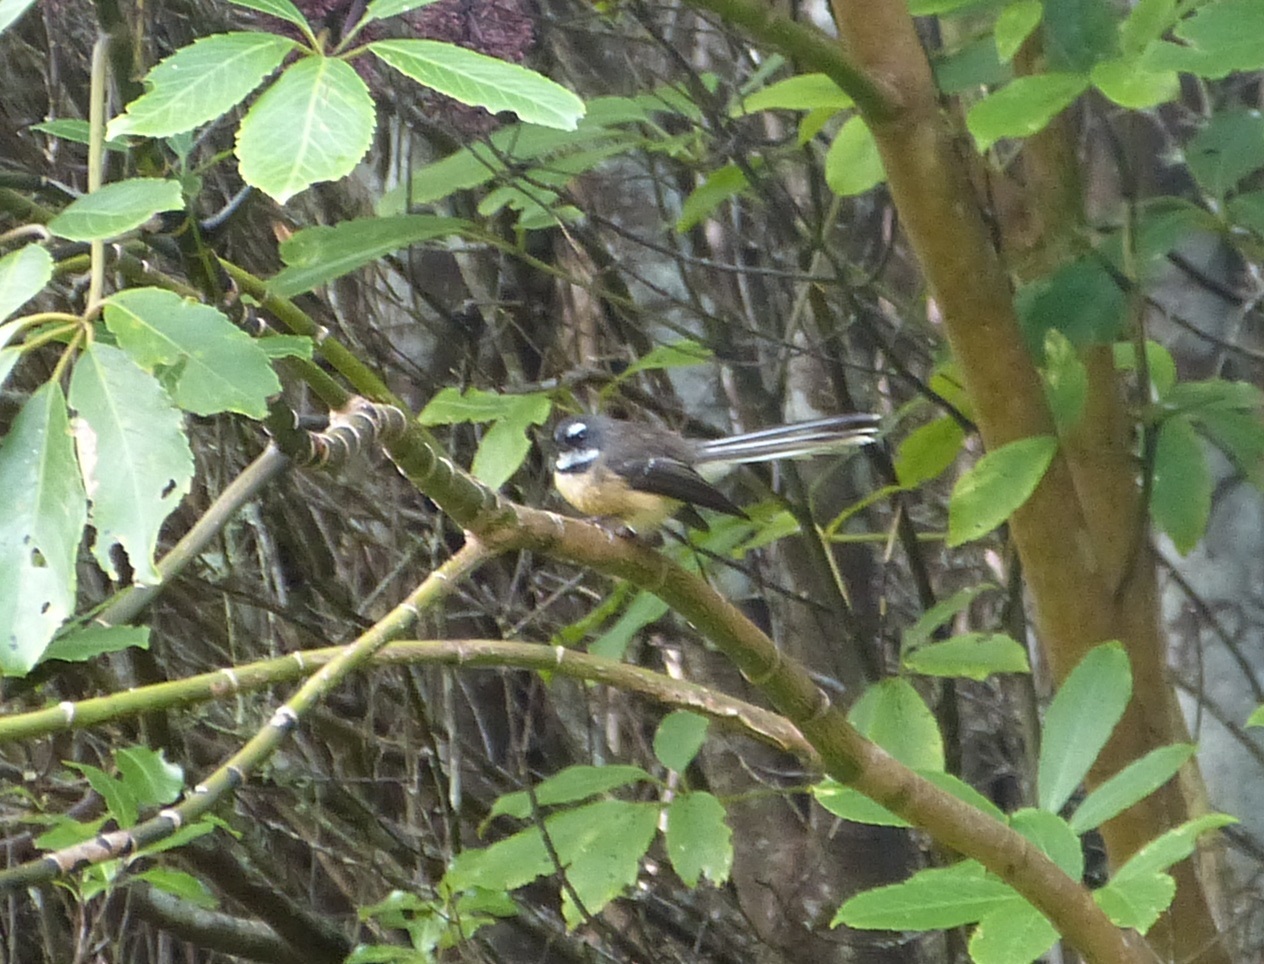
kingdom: Animalia
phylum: Chordata
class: Aves
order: Passeriformes
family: Rhipiduridae
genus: Rhipidura
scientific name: Rhipidura fuliginosa
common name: New zealand fantail
